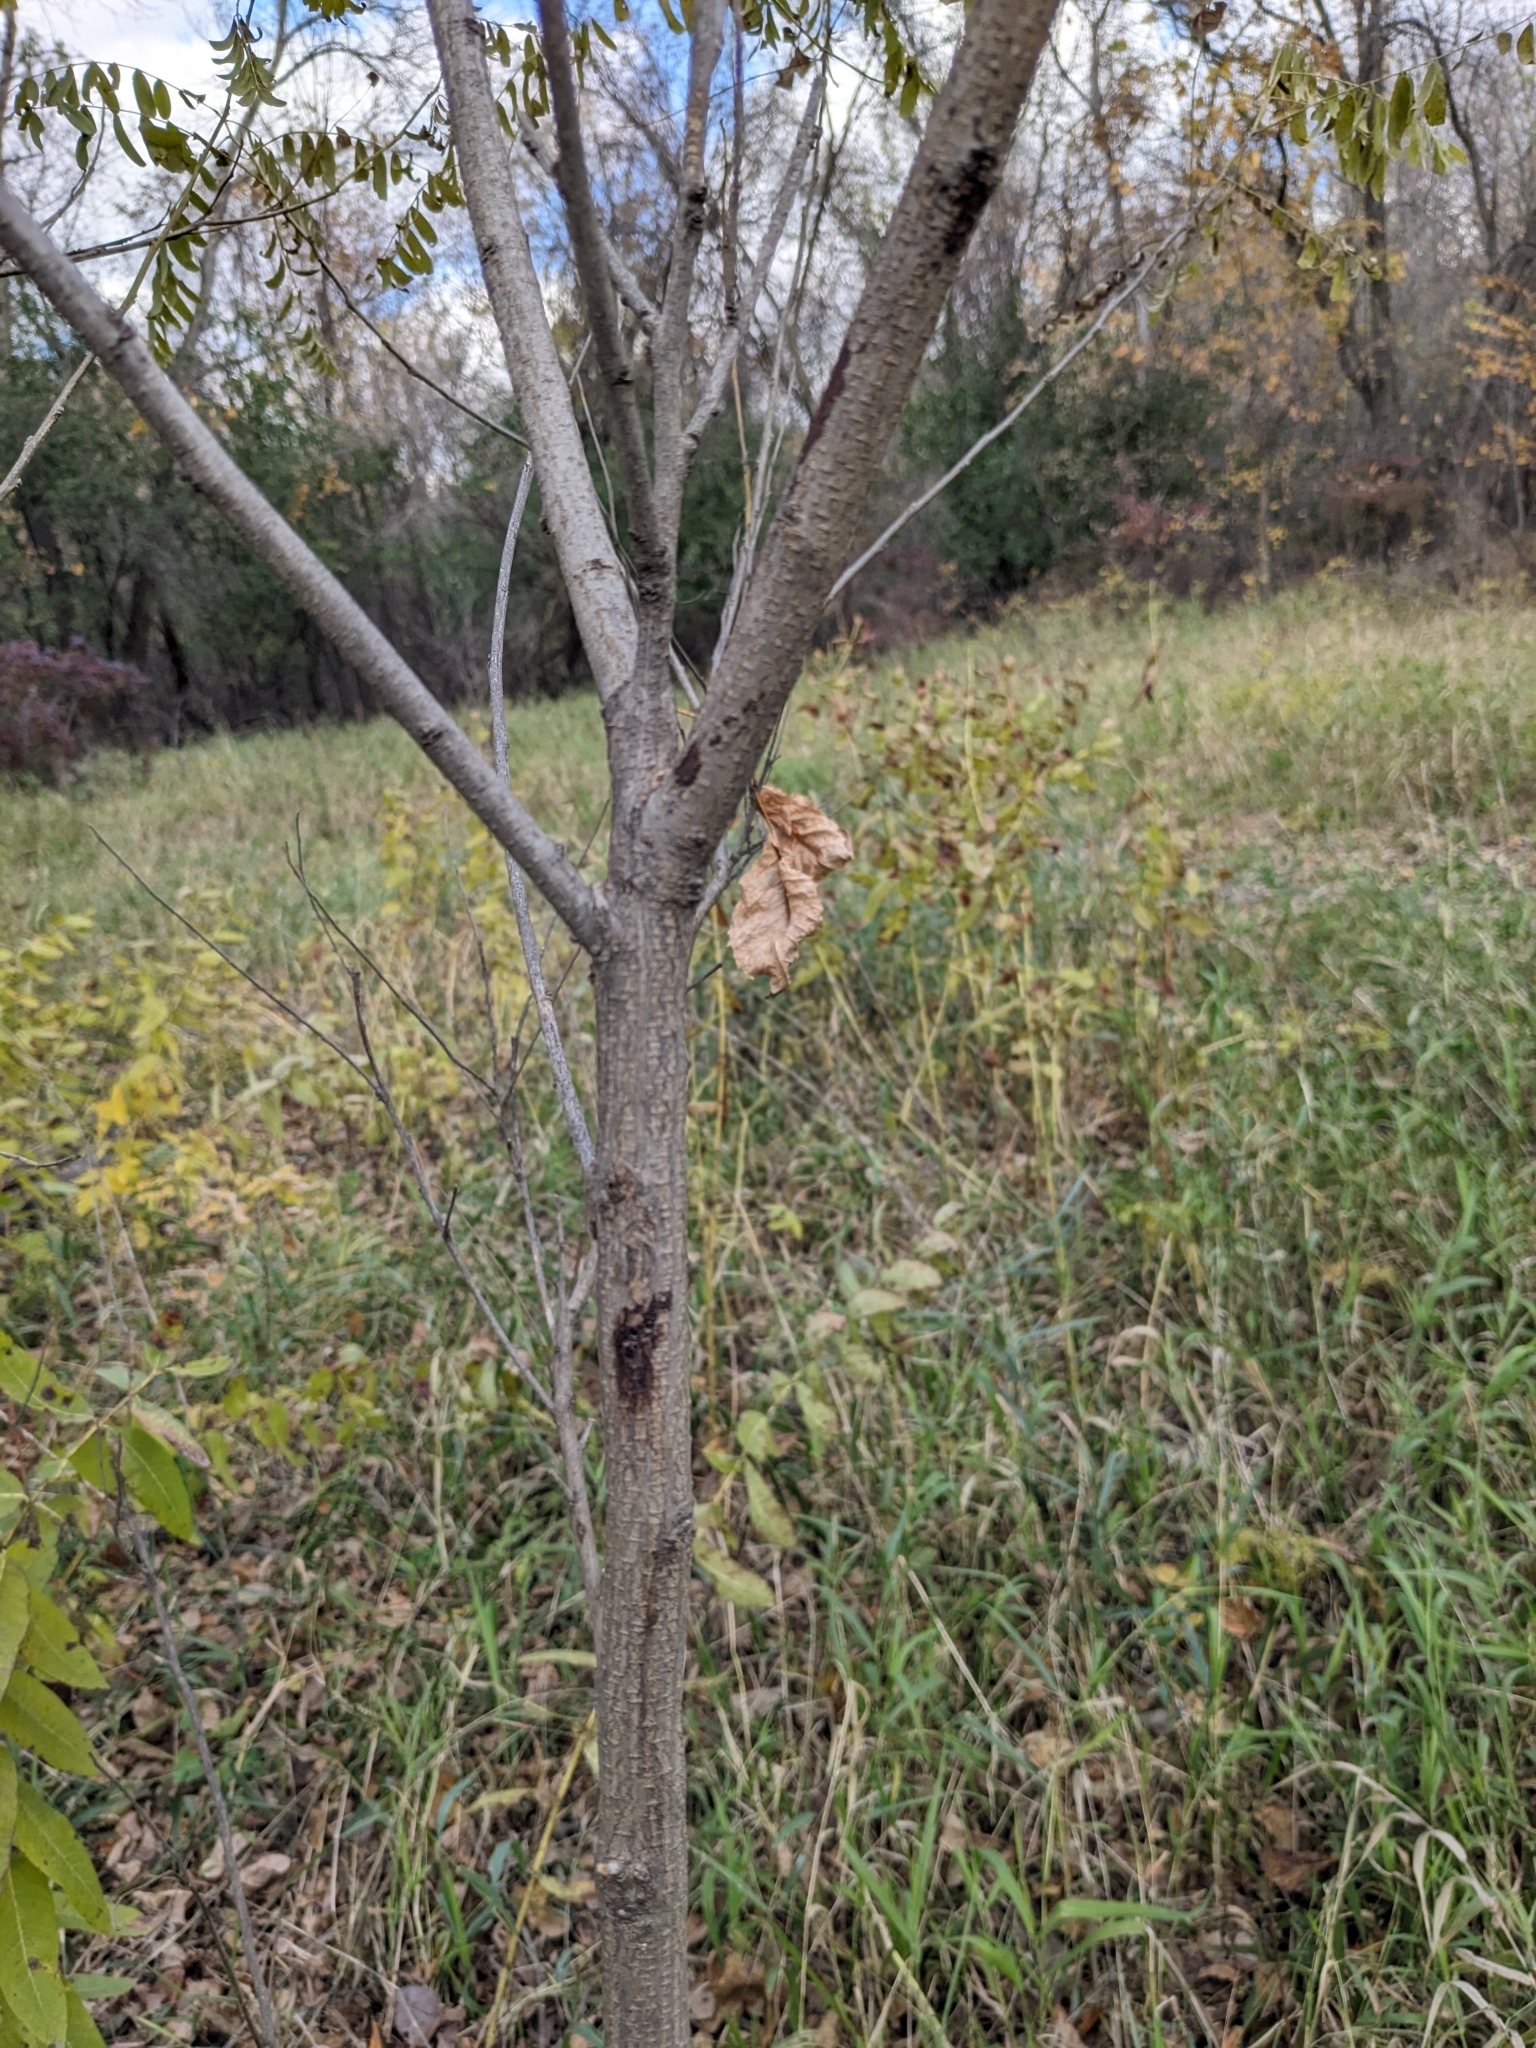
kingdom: Plantae
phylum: Tracheophyta
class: Magnoliopsida
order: Fabales
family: Fabaceae
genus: Amorpha
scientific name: Amorpha fruticosa
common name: False indigo
